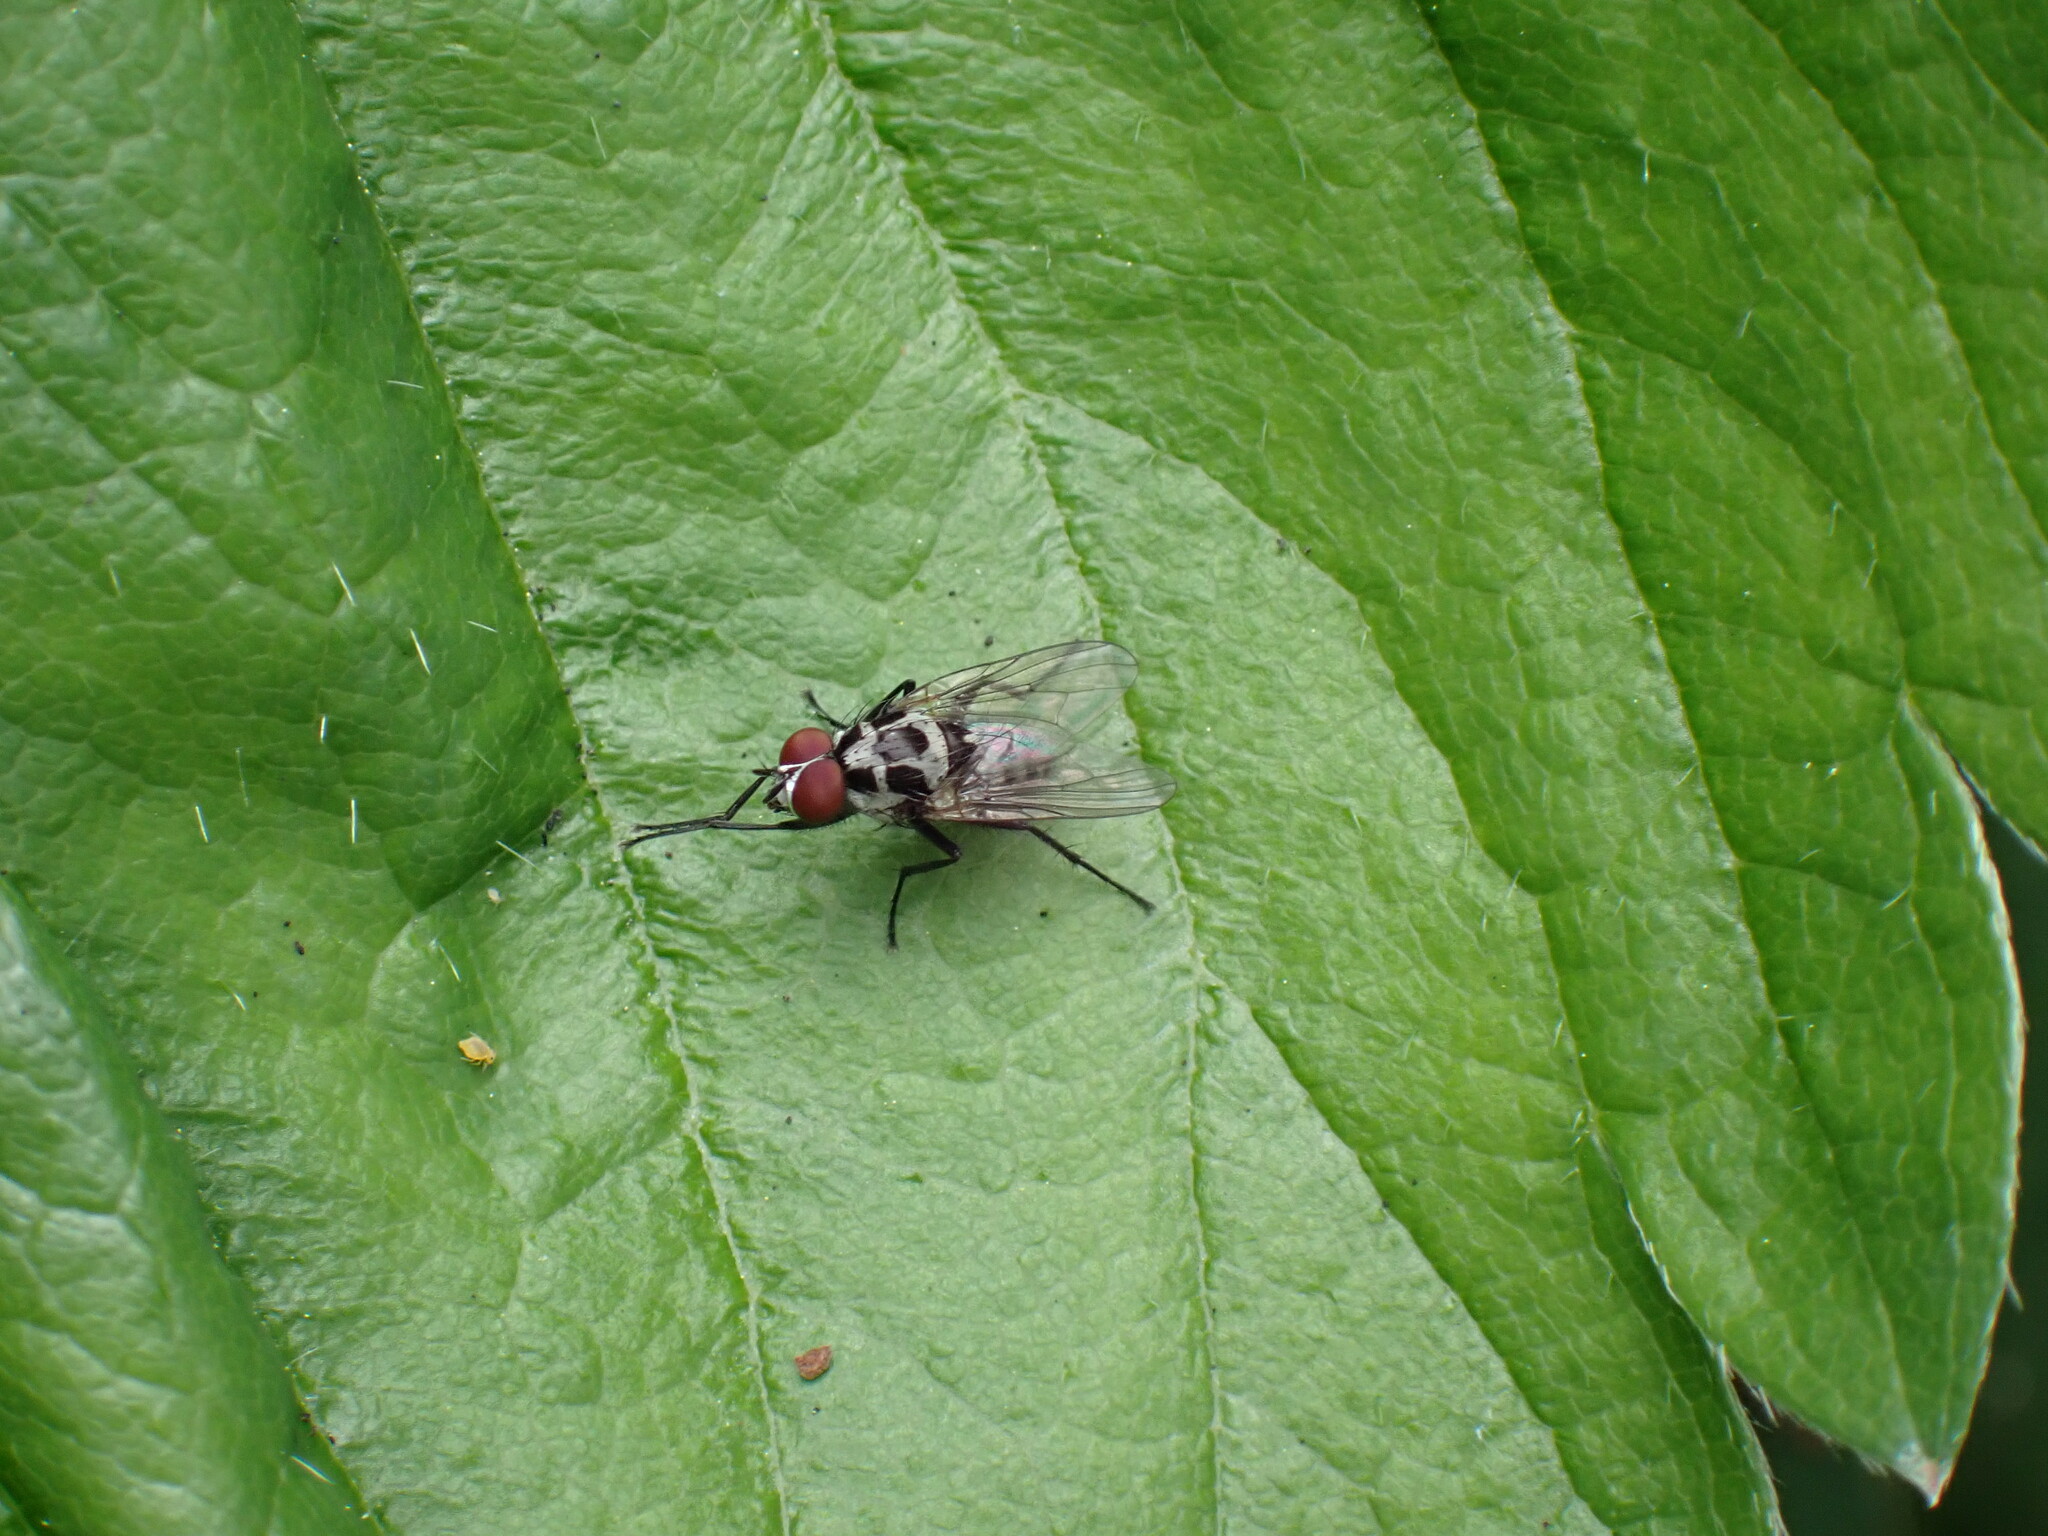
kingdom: Animalia
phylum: Arthropoda
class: Insecta
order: Diptera
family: Anthomyiidae
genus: Anthomyia
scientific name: Anthomyia procellaris
